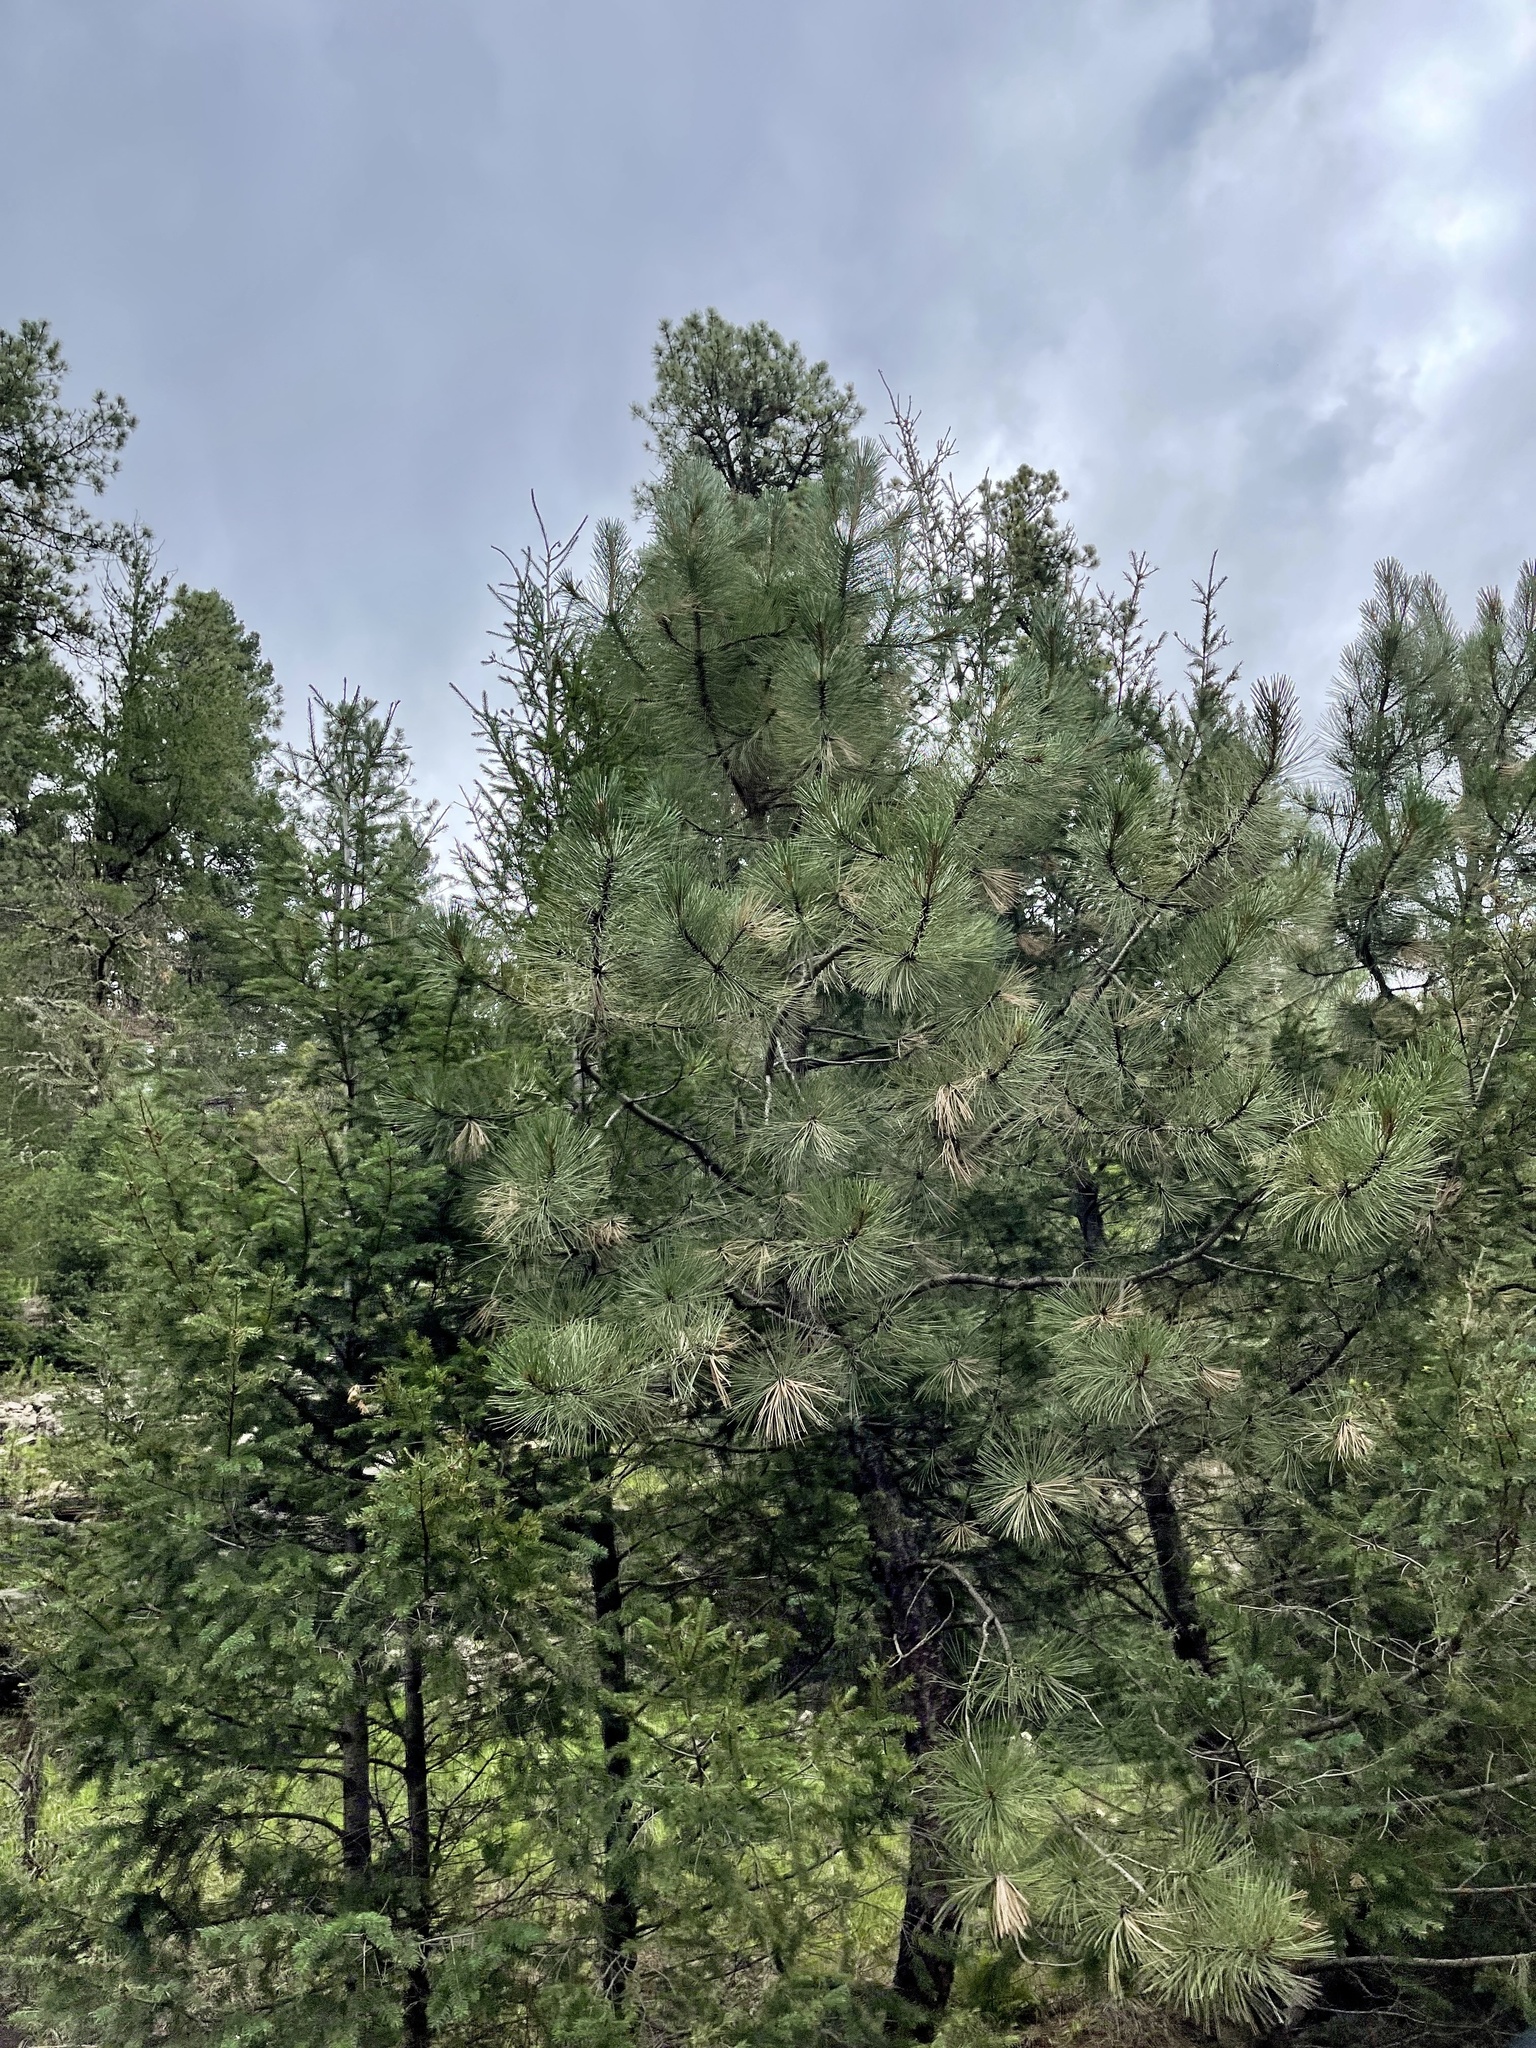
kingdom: Plantae
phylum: Tracheophyta
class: Pinopsida
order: Pinales
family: Pinaceae
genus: Pinus
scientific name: Pinus ponderosa
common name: Western yellow-pine
